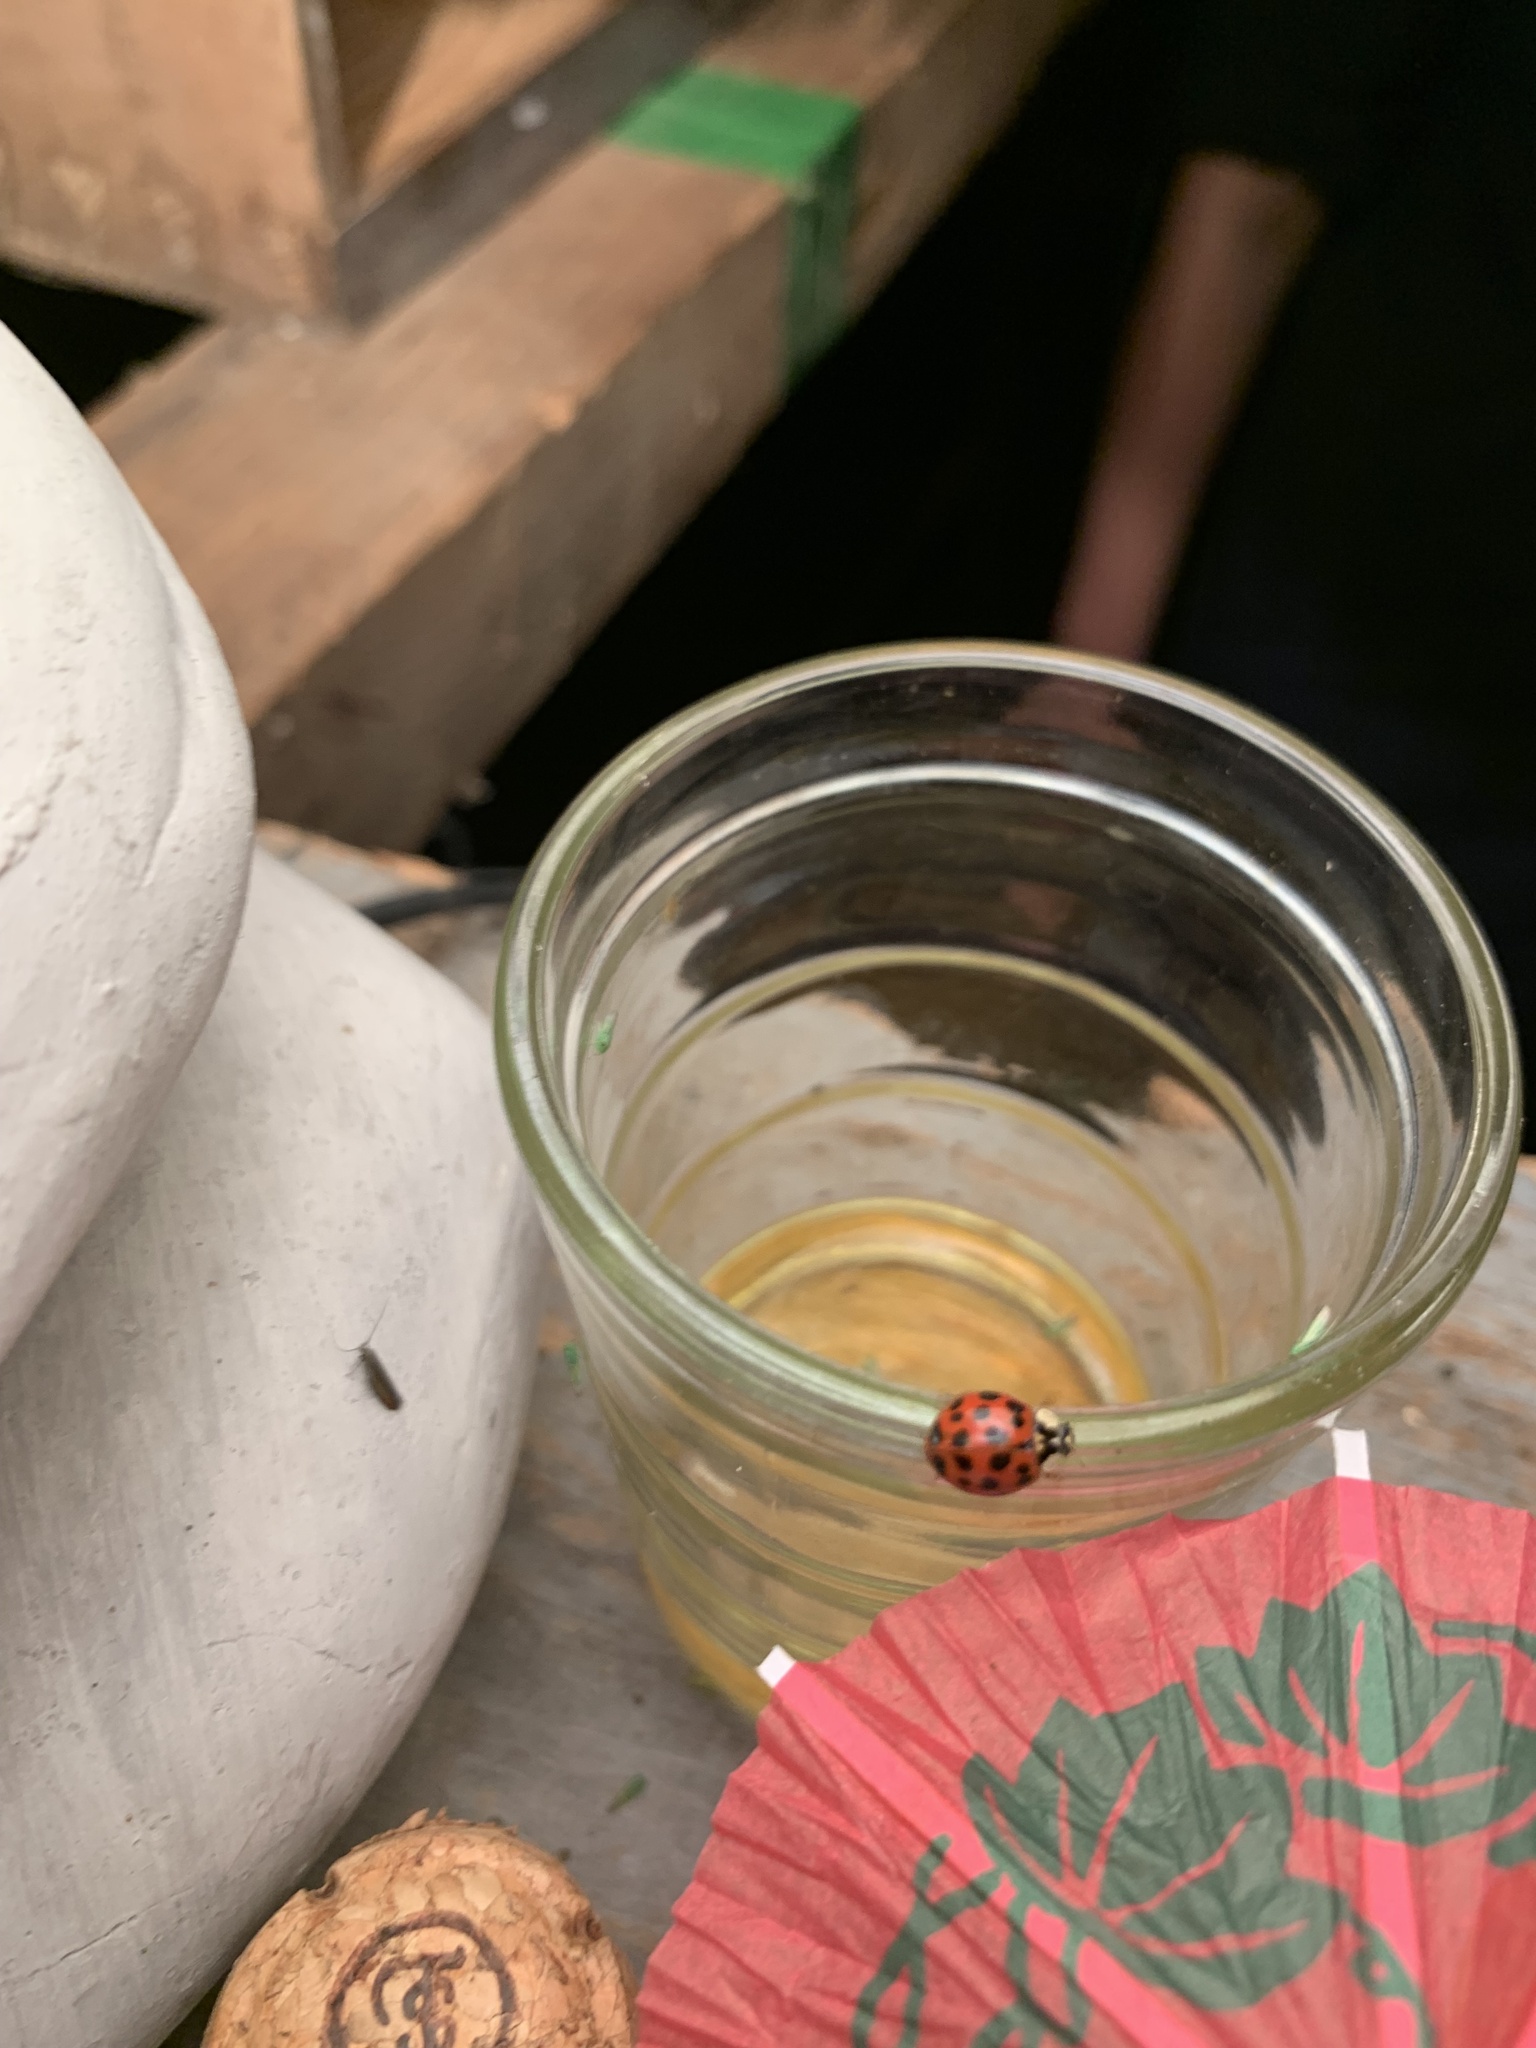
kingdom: Animalia
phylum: Arthropoda
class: Insecta
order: Coleoptera
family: Coccinellidae
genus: Harmonia
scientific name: Harmonia axyridis
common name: Harlequin ladybird
